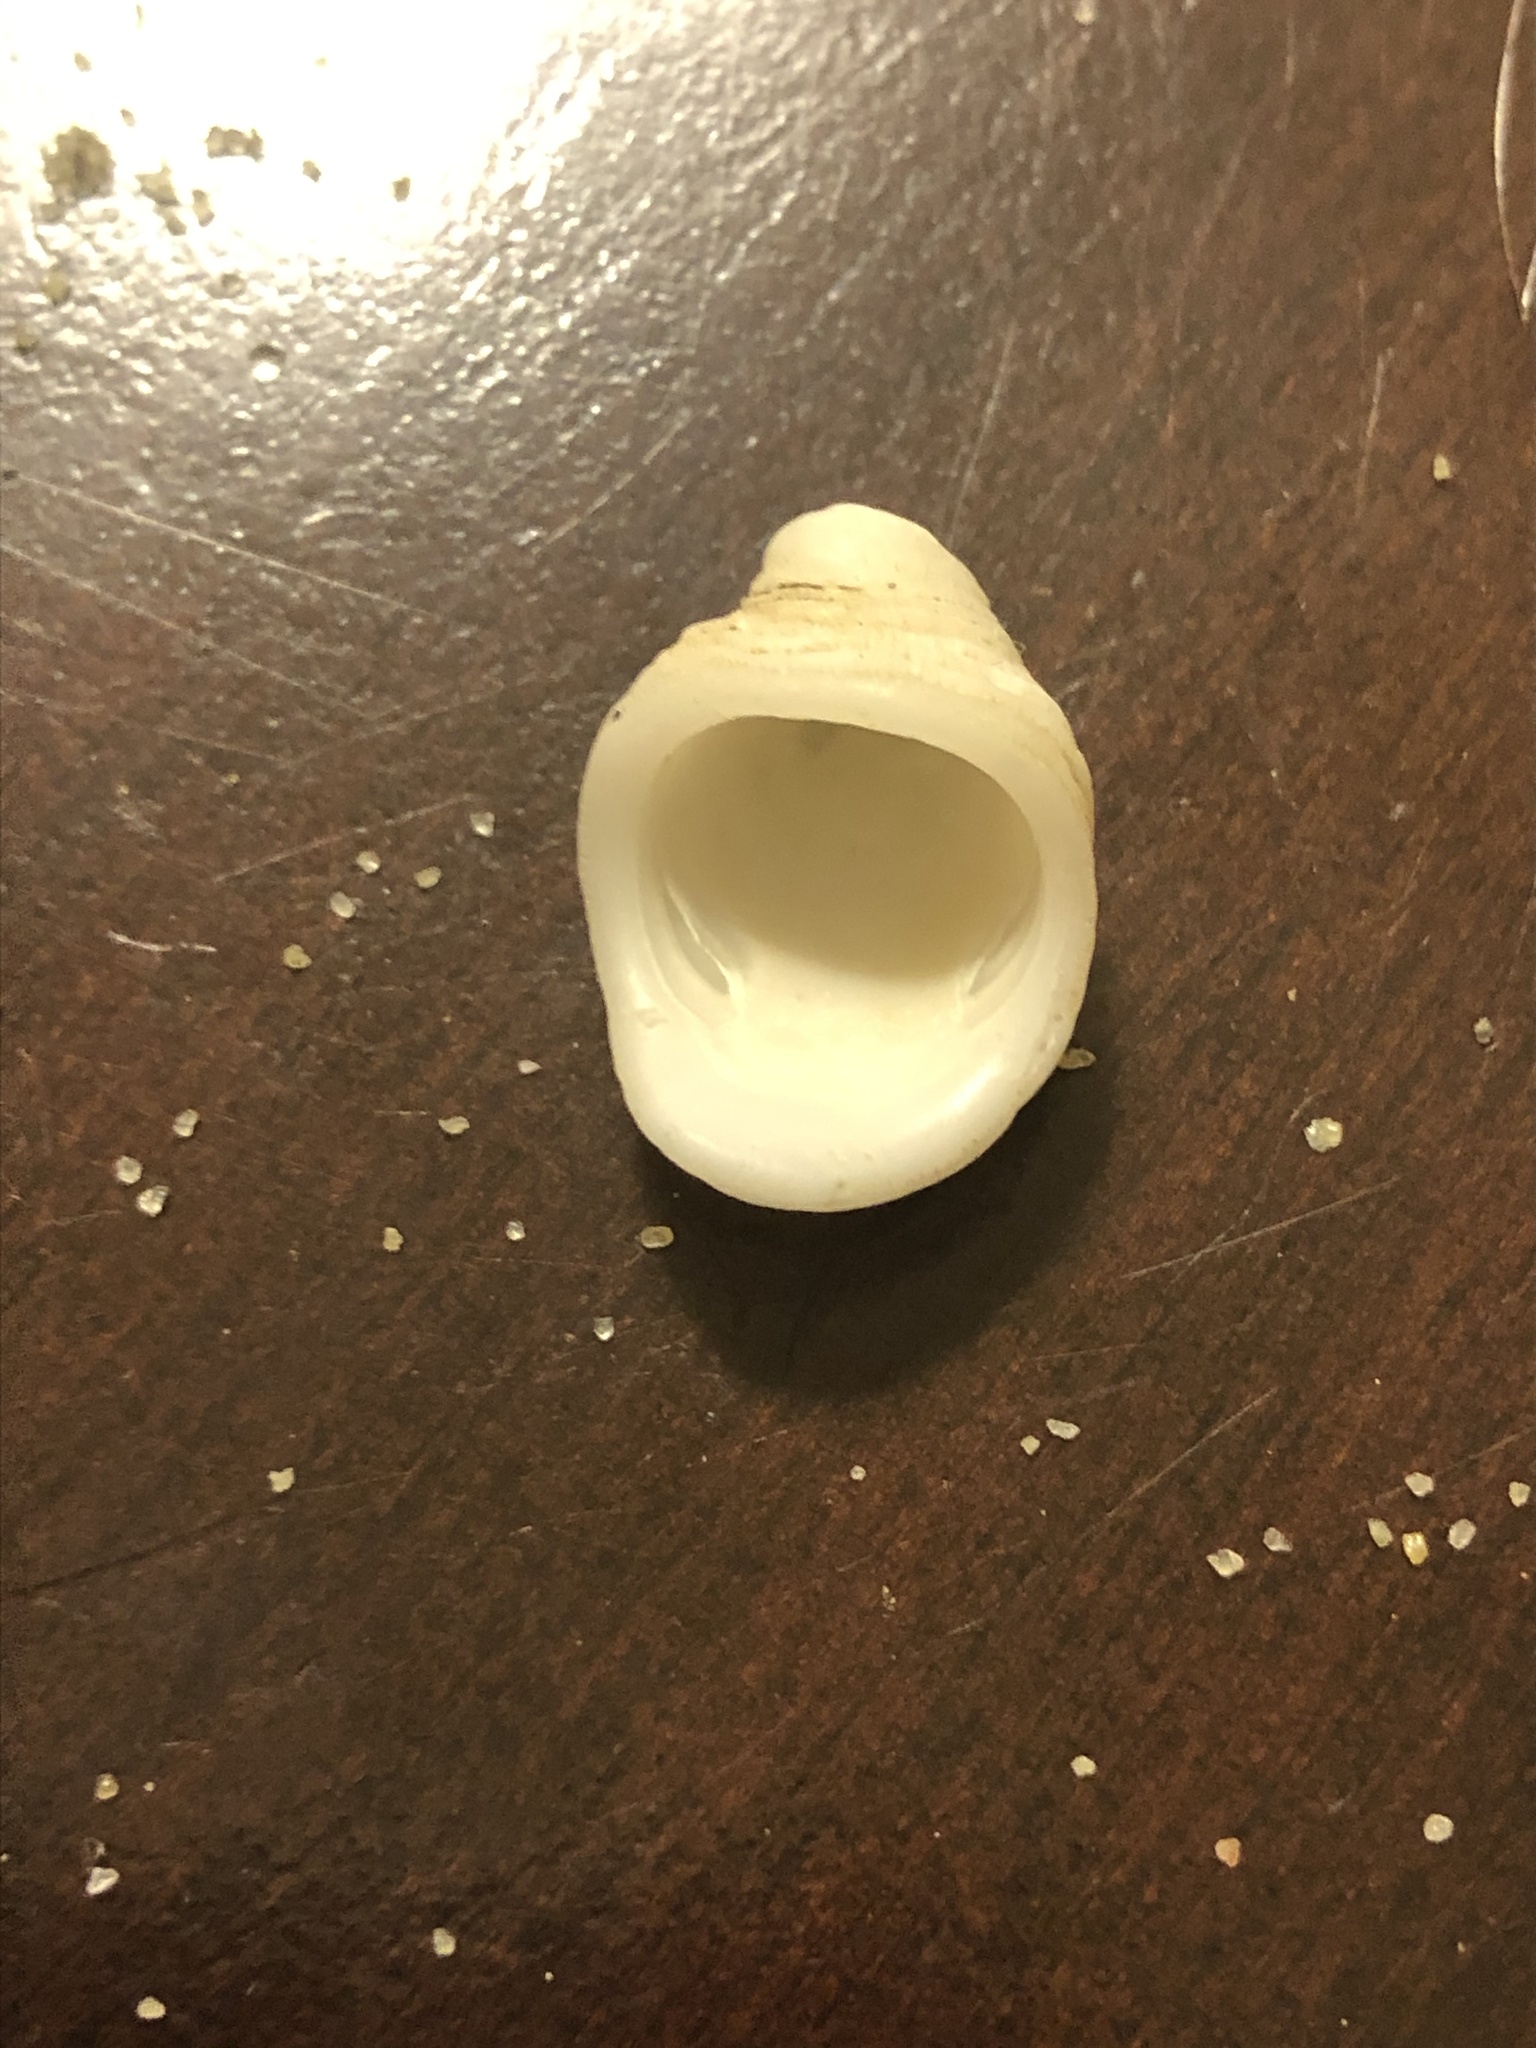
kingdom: Animalia
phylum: Mollusca
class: Gastropoda
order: Littorinimorpha
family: Hipponicidae
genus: Hipponix
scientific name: Hipponix panamensis
